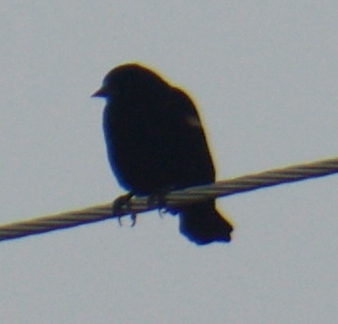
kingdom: Animalia
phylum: Chordata
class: Aves
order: Passeriformes
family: Icteridae
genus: Agelaius
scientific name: Agelaius phoeniceus
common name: Red-winged blackbird
